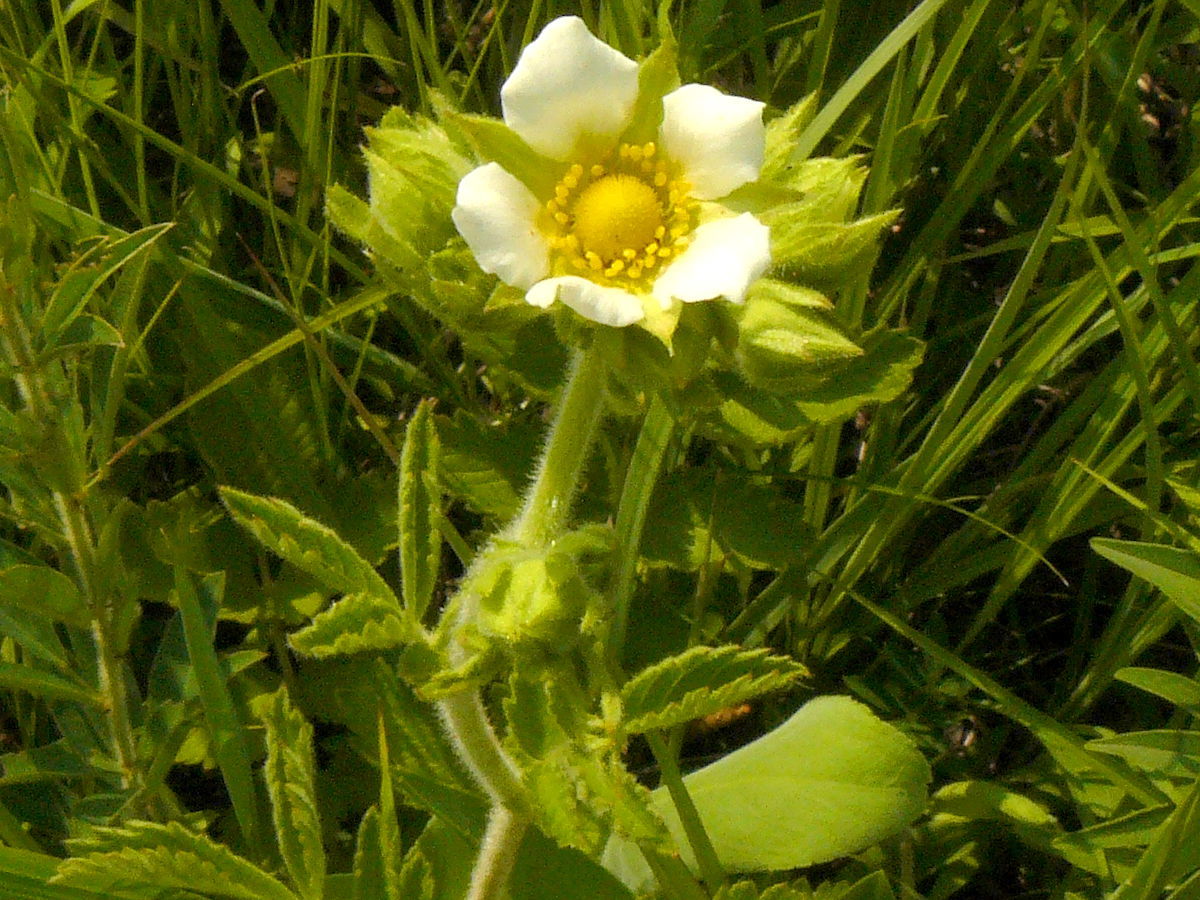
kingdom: Plantae
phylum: Tracheophyta
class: Magnoliopsida
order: Rosales
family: Rosaceae
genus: Drymocallis
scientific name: Drymocallis arguta
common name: Tall cinquefoil
